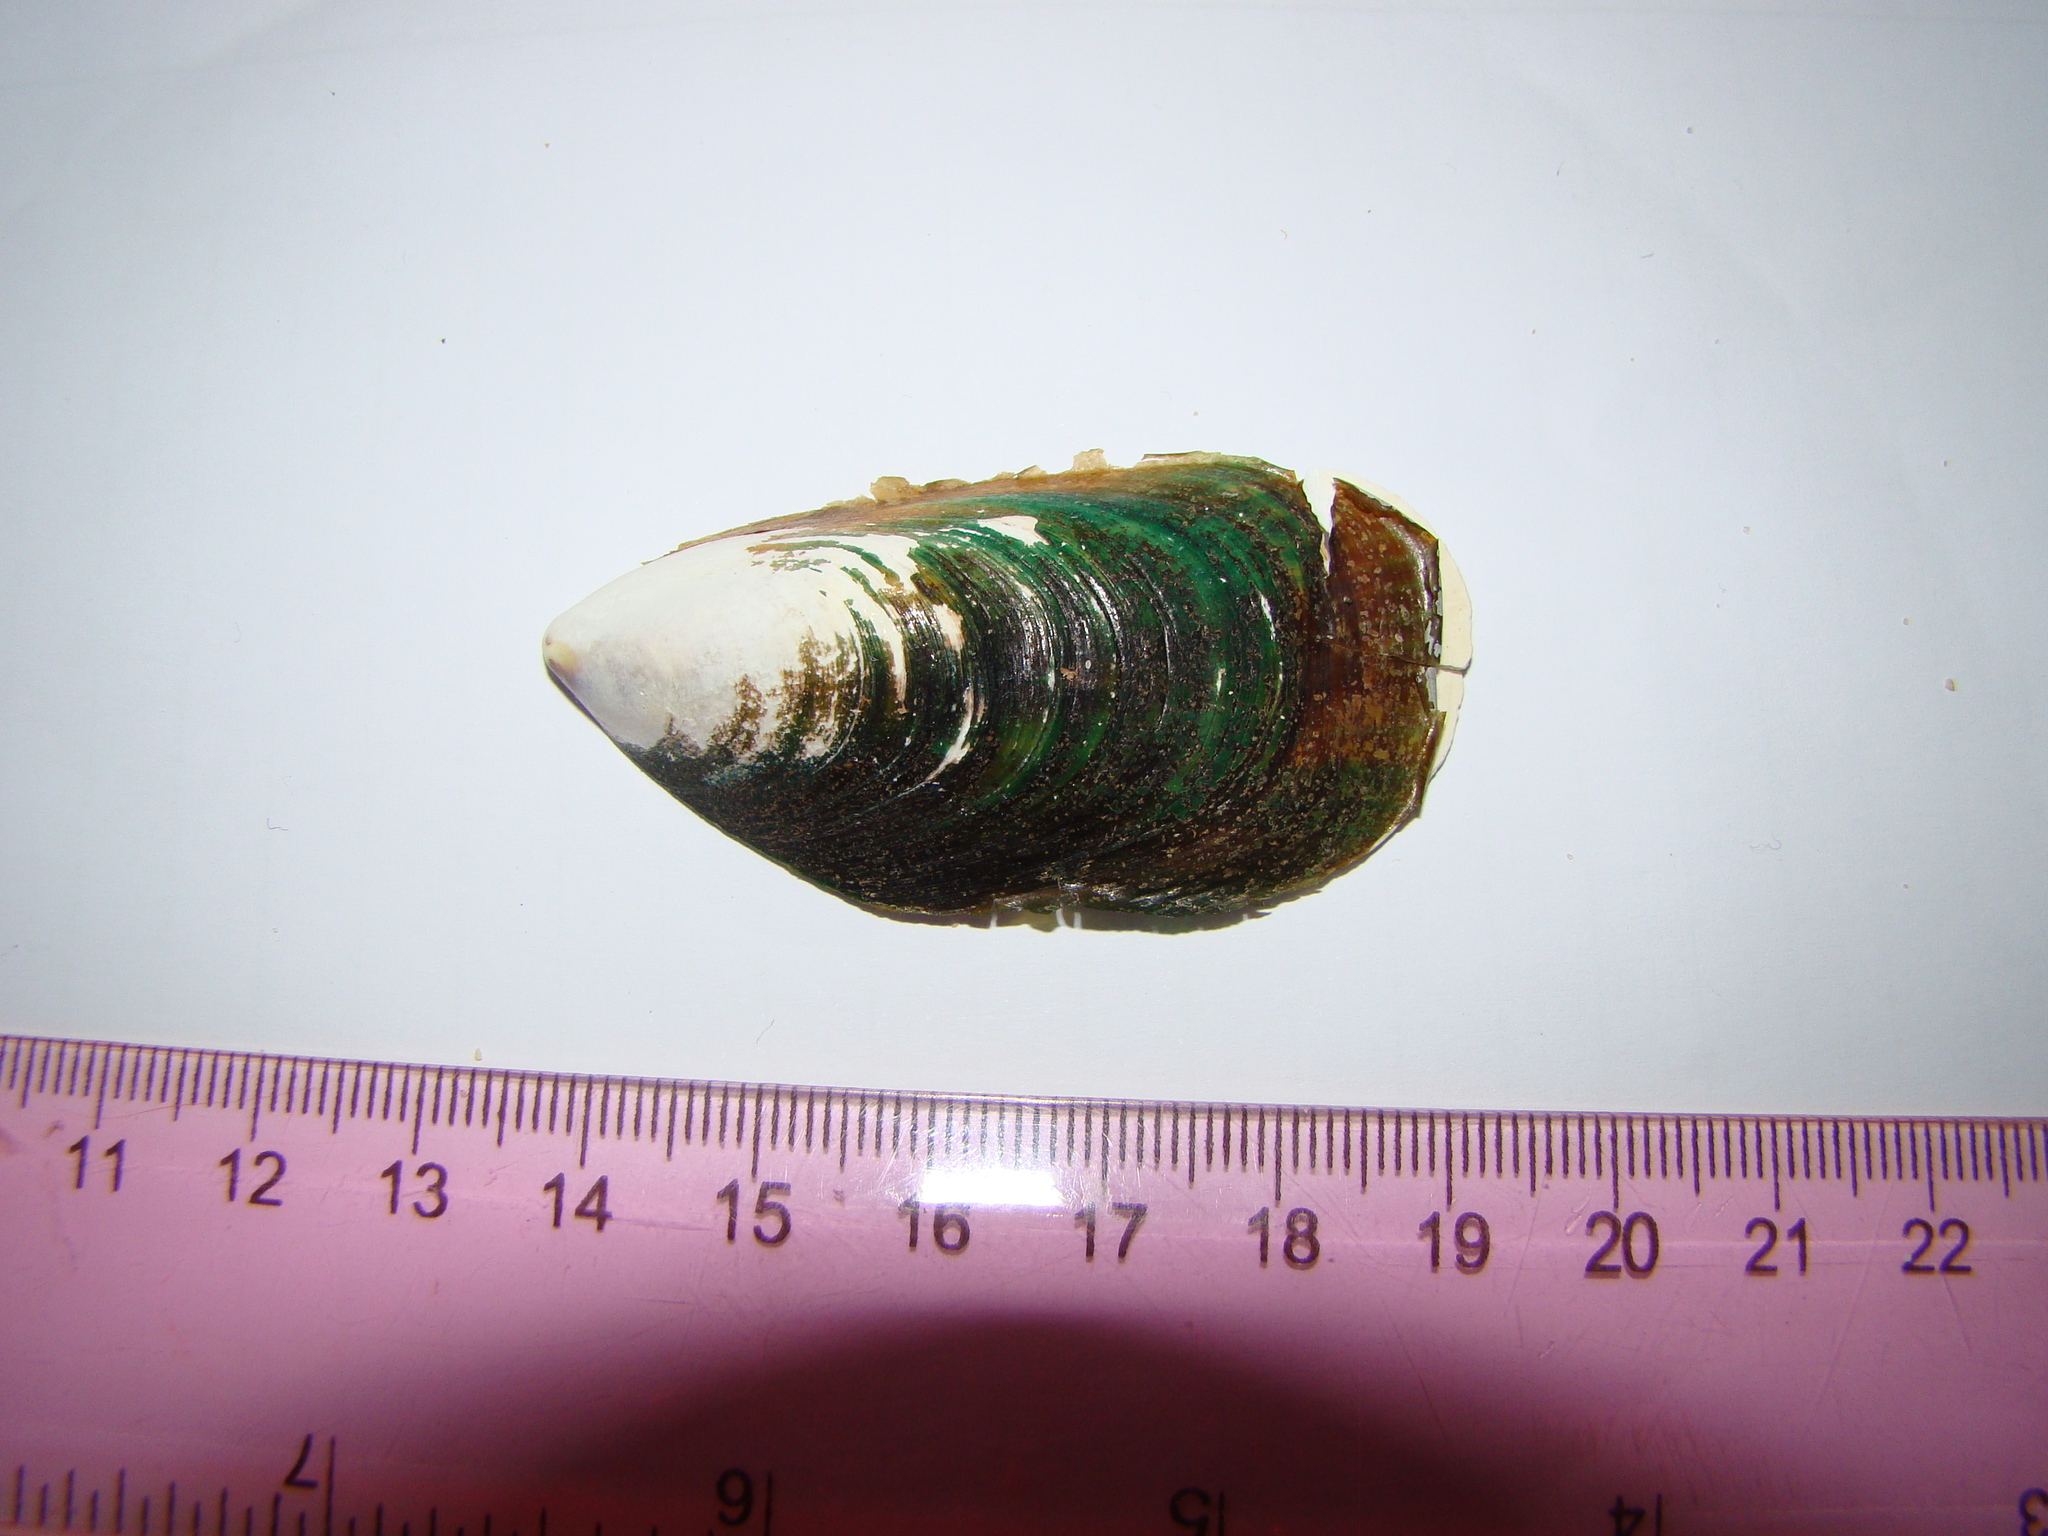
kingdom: Animalia
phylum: Mollusca
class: Bivalvia
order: Mytilida
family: Mytilidae
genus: Perna
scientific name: Perna canaliculus
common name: New zealand greenshelltm
